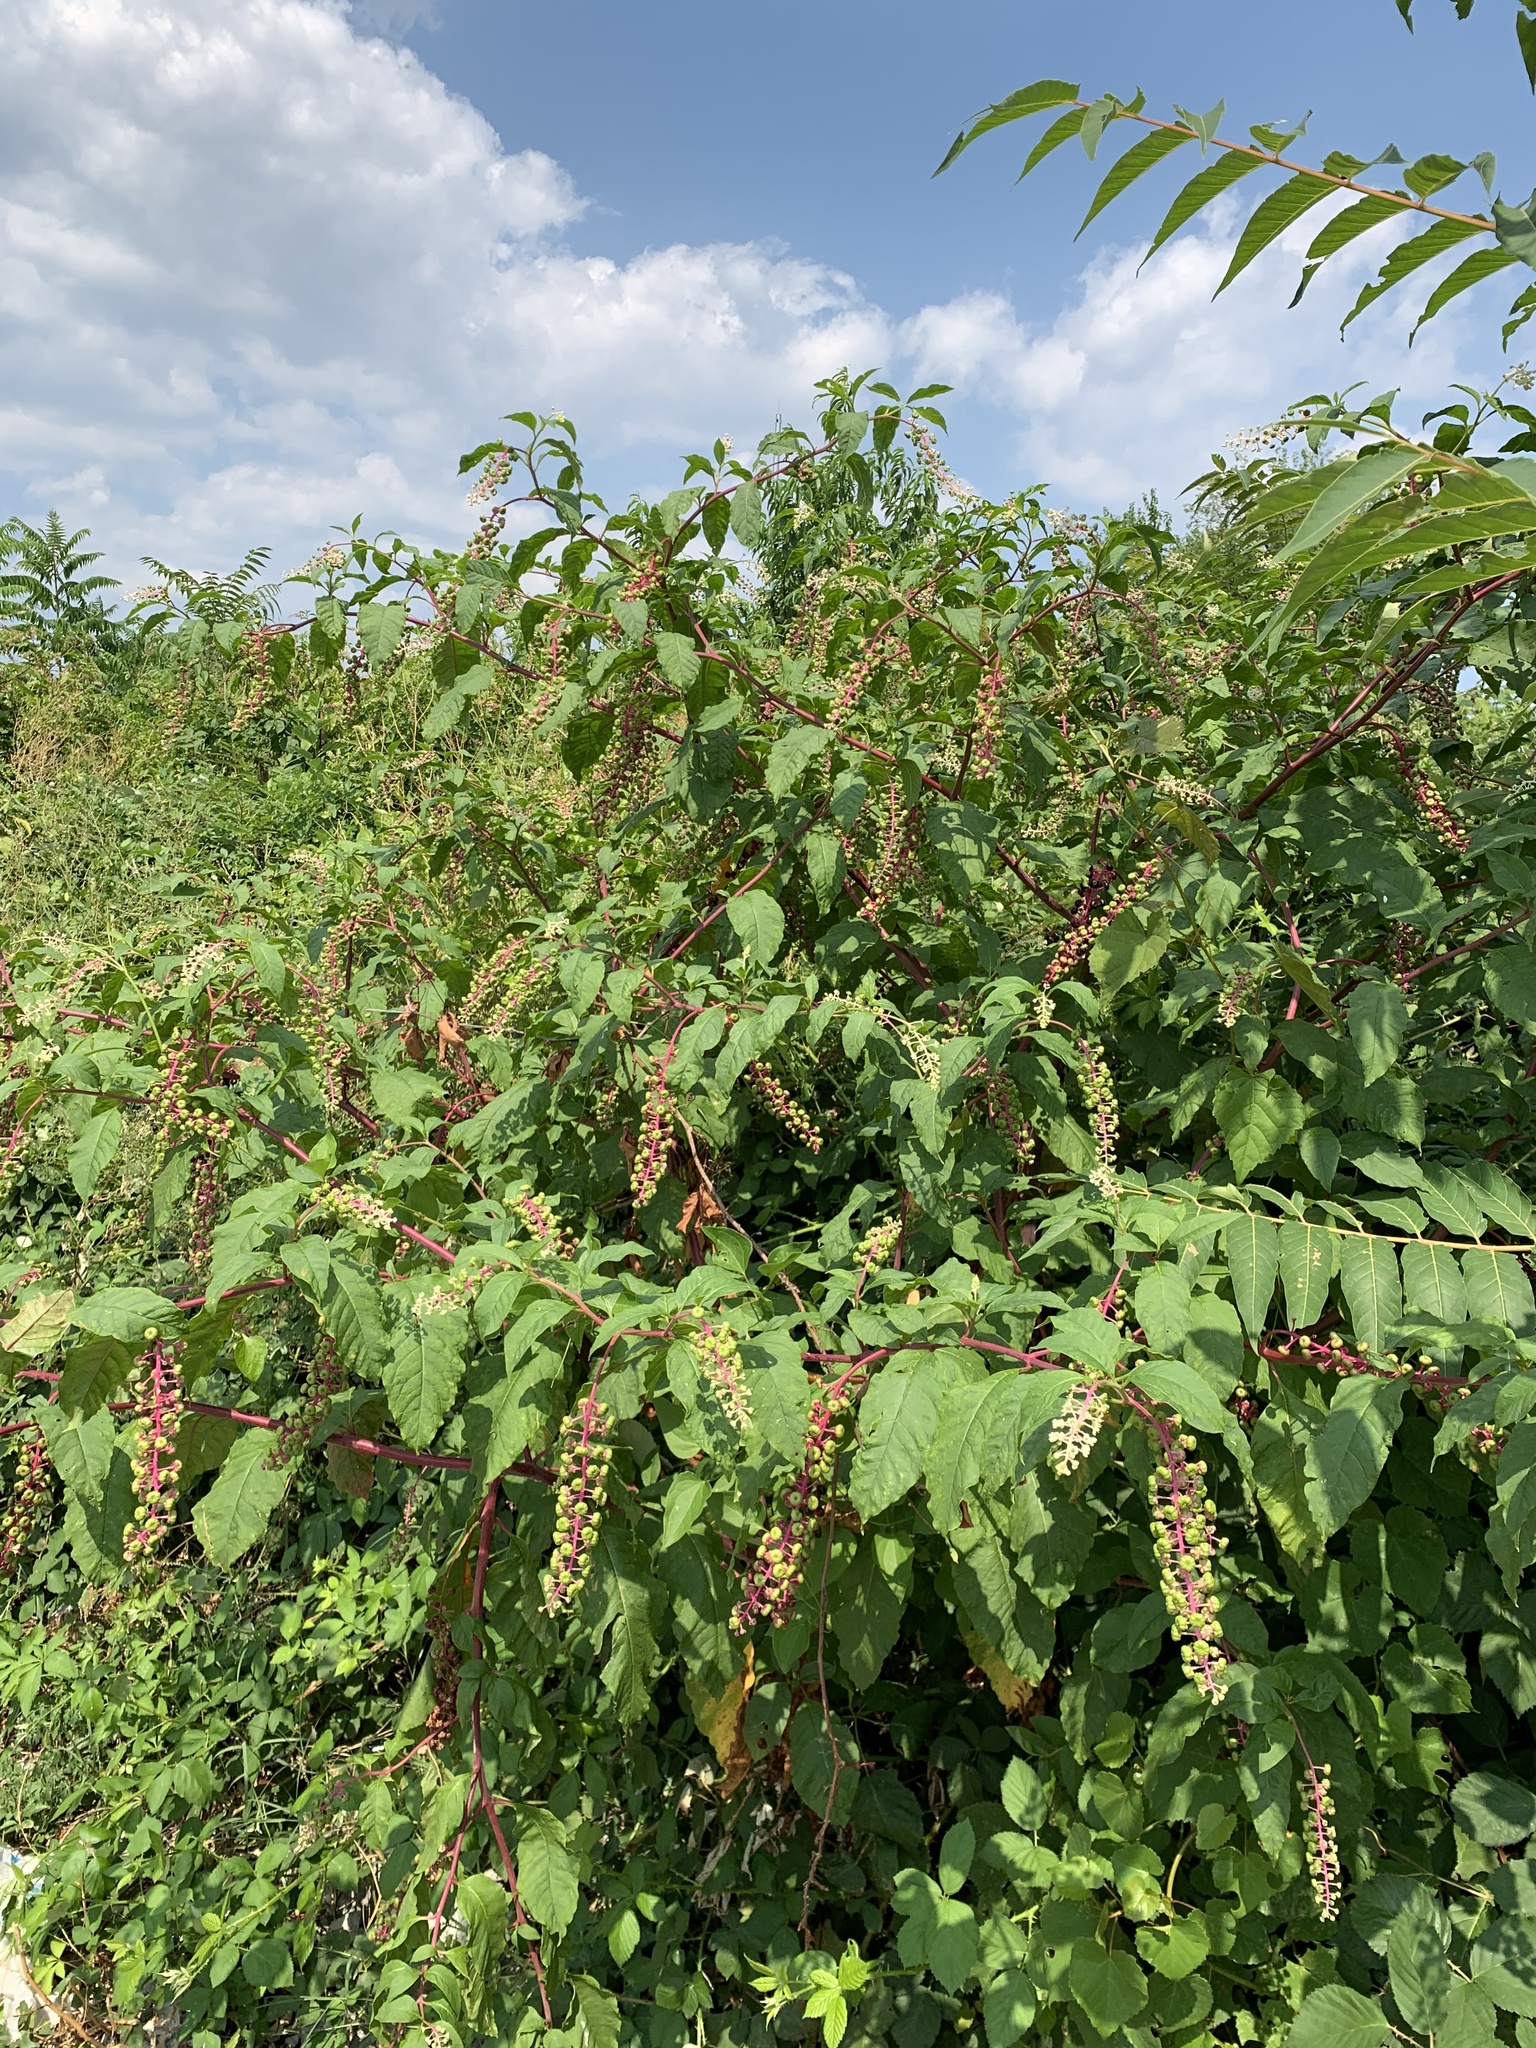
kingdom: Plantae
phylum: Tracheophyta
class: Magnoliopsida
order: Caryophyllales
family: Phytolaccaceae
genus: Phytolacca
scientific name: Phytolacca americana
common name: American pokeweed
